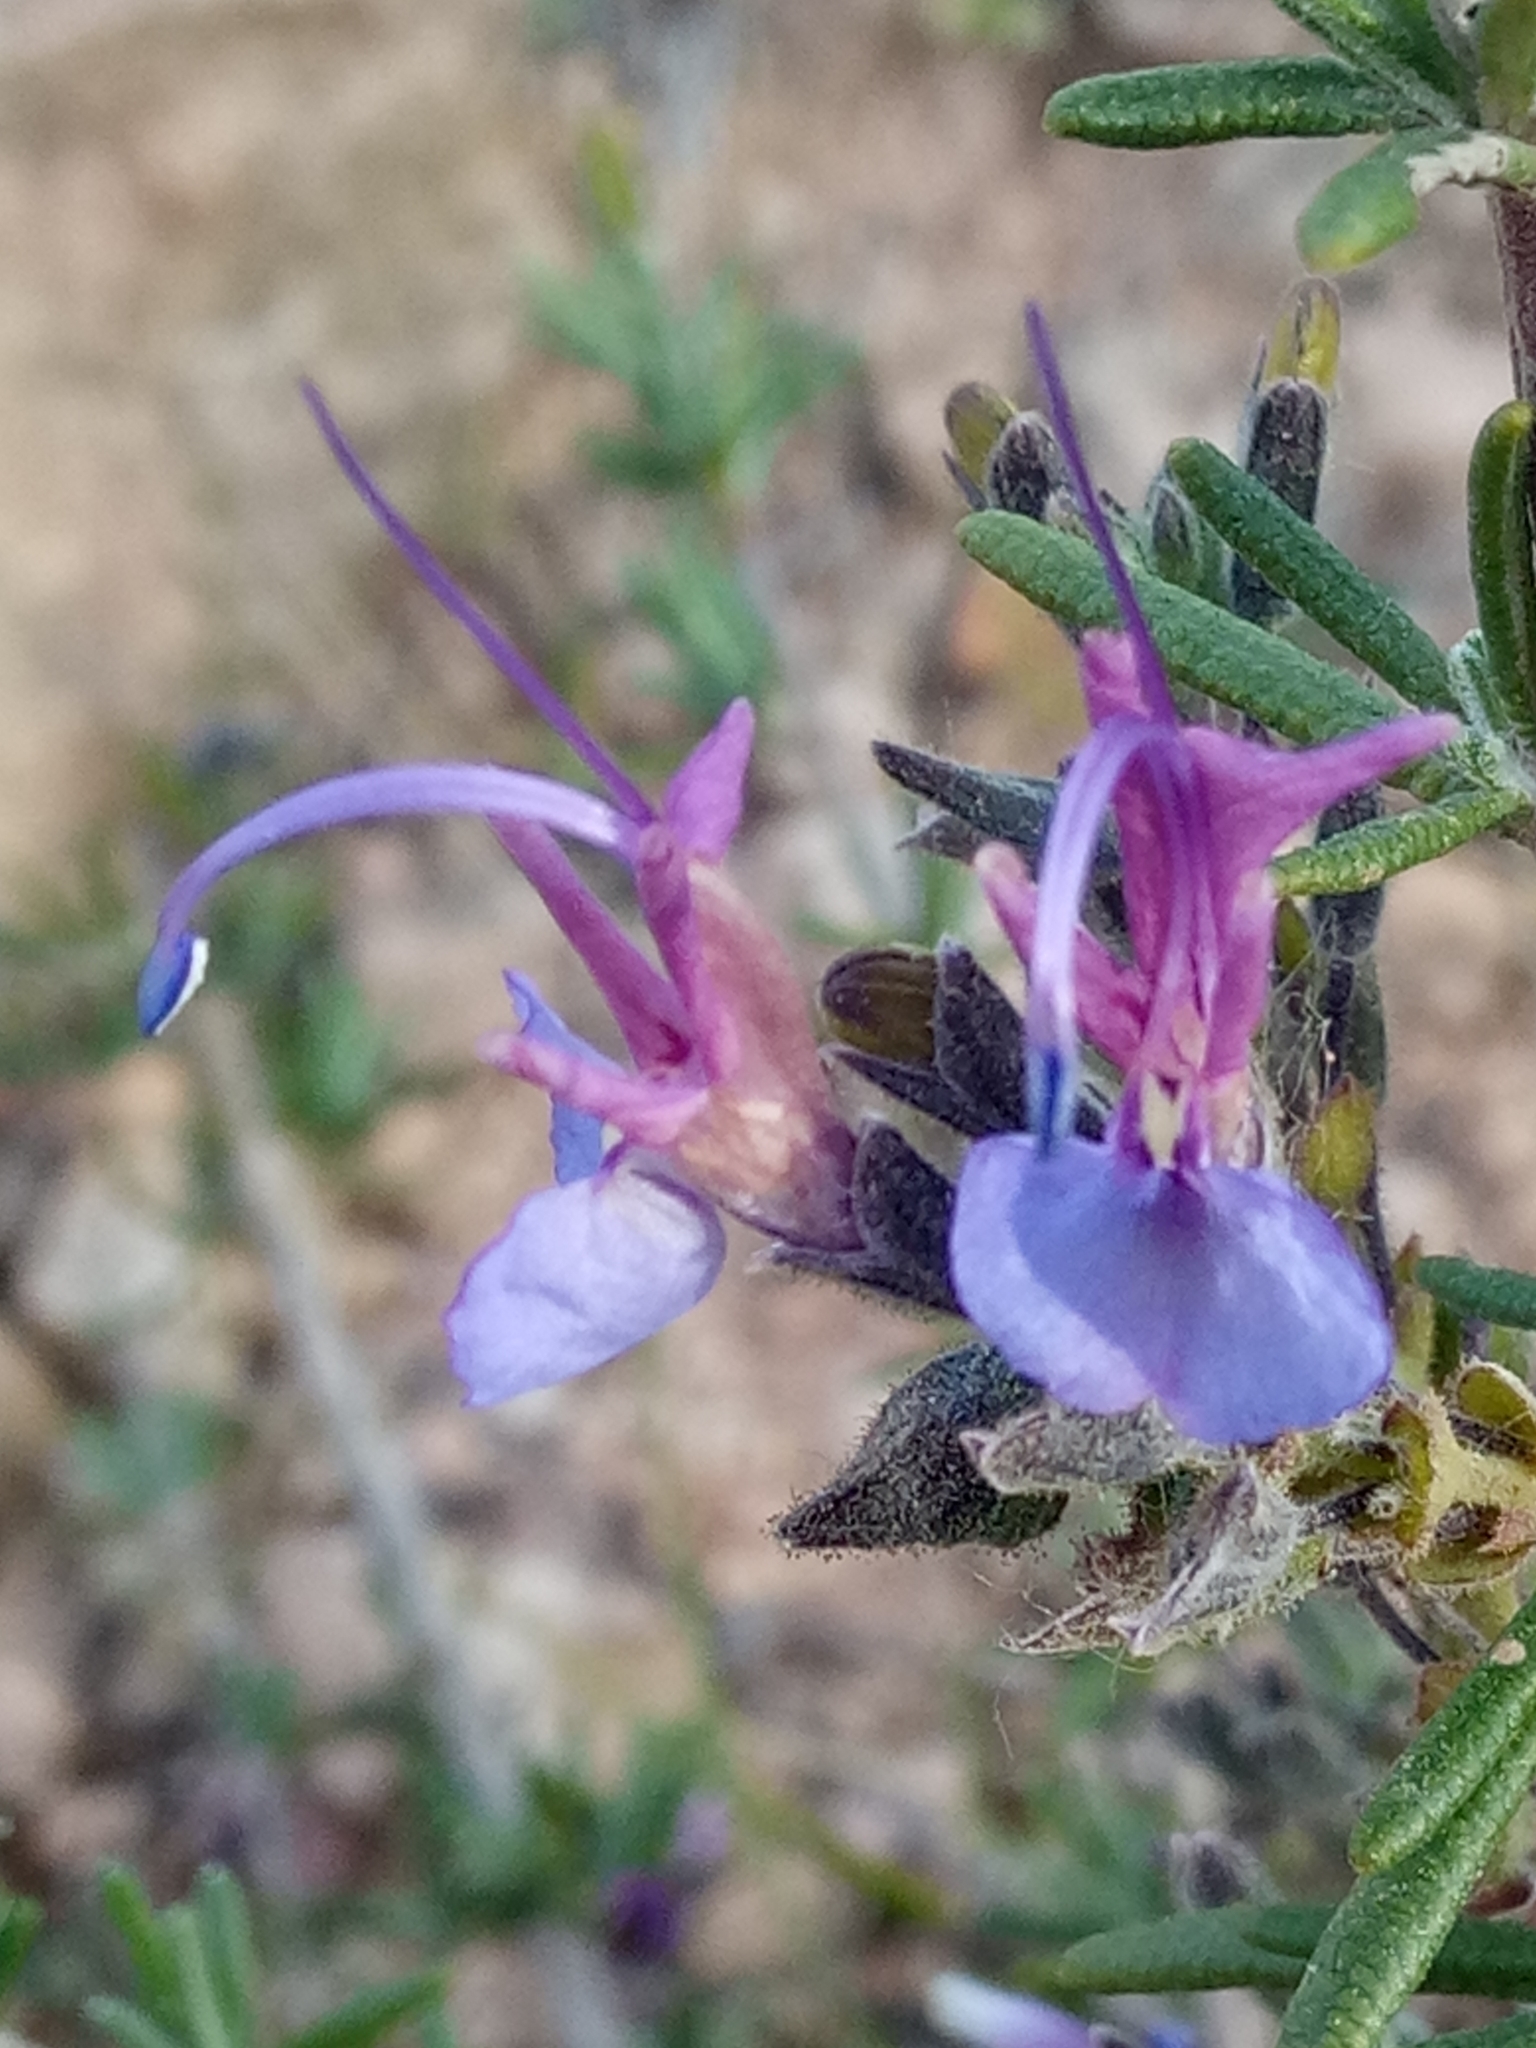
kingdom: Plantae
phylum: Tracheophyta
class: Magnoliopsida
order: Lamiales
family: Lamiaceae
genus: Salvia
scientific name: Salvia jordanii
